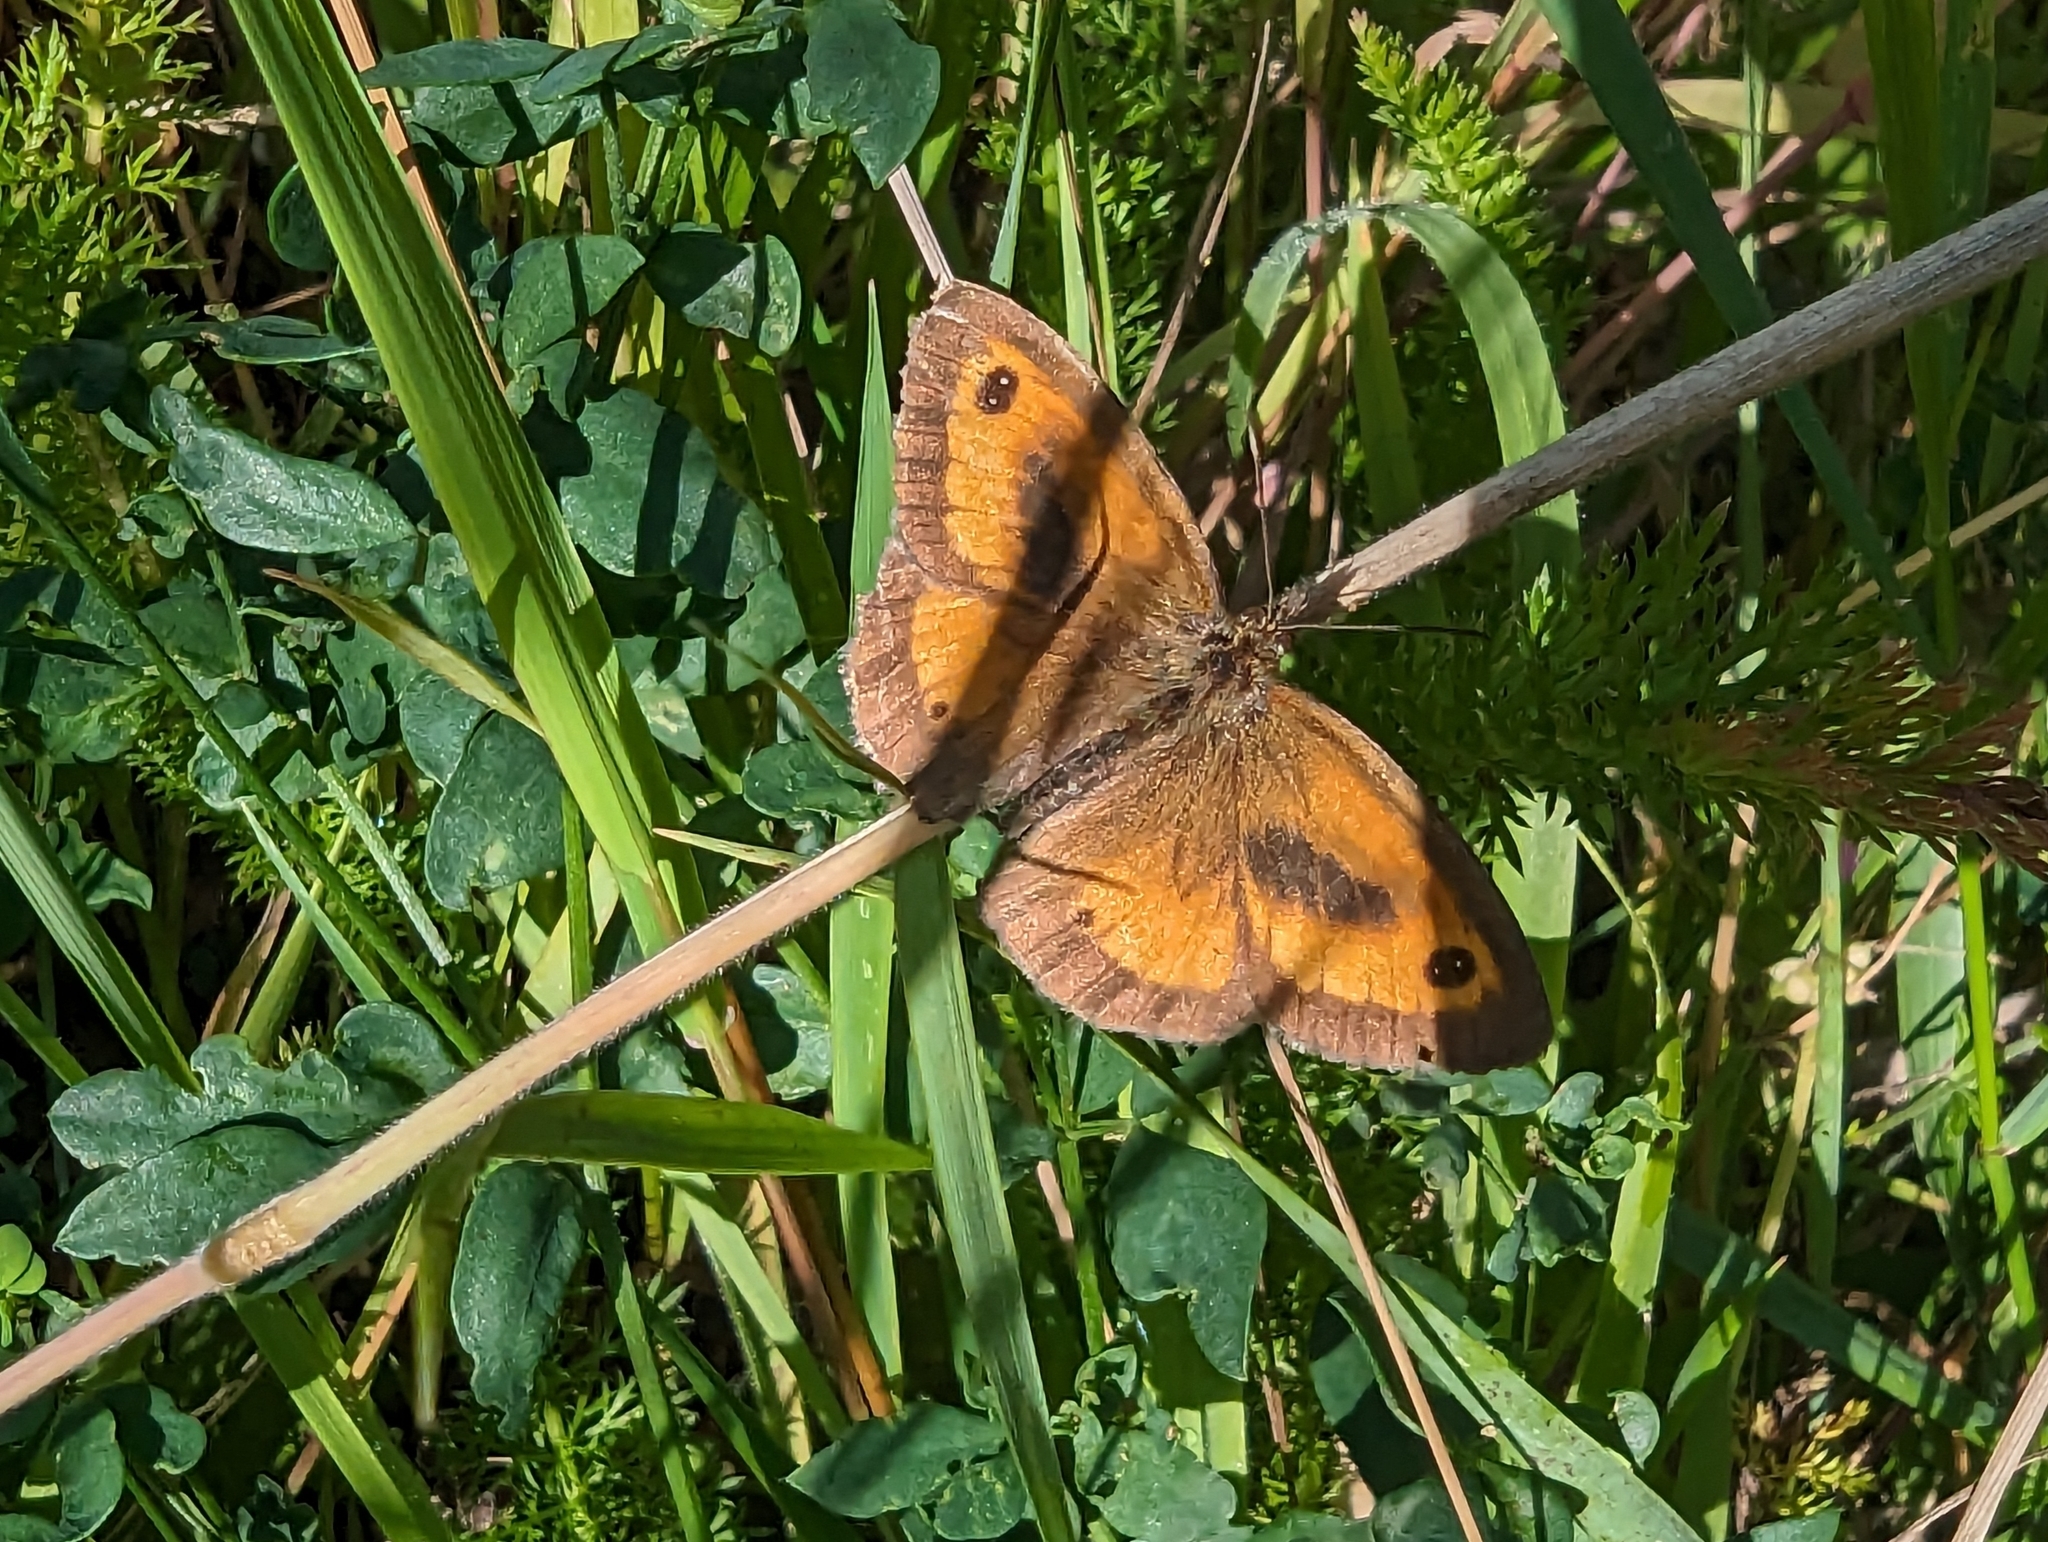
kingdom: Animalia
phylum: Arthropoda
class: Insecta
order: Lepidoptera
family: Nymphalidae
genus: Pyronia
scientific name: Pyronia tithonus
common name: Gatekeeper
